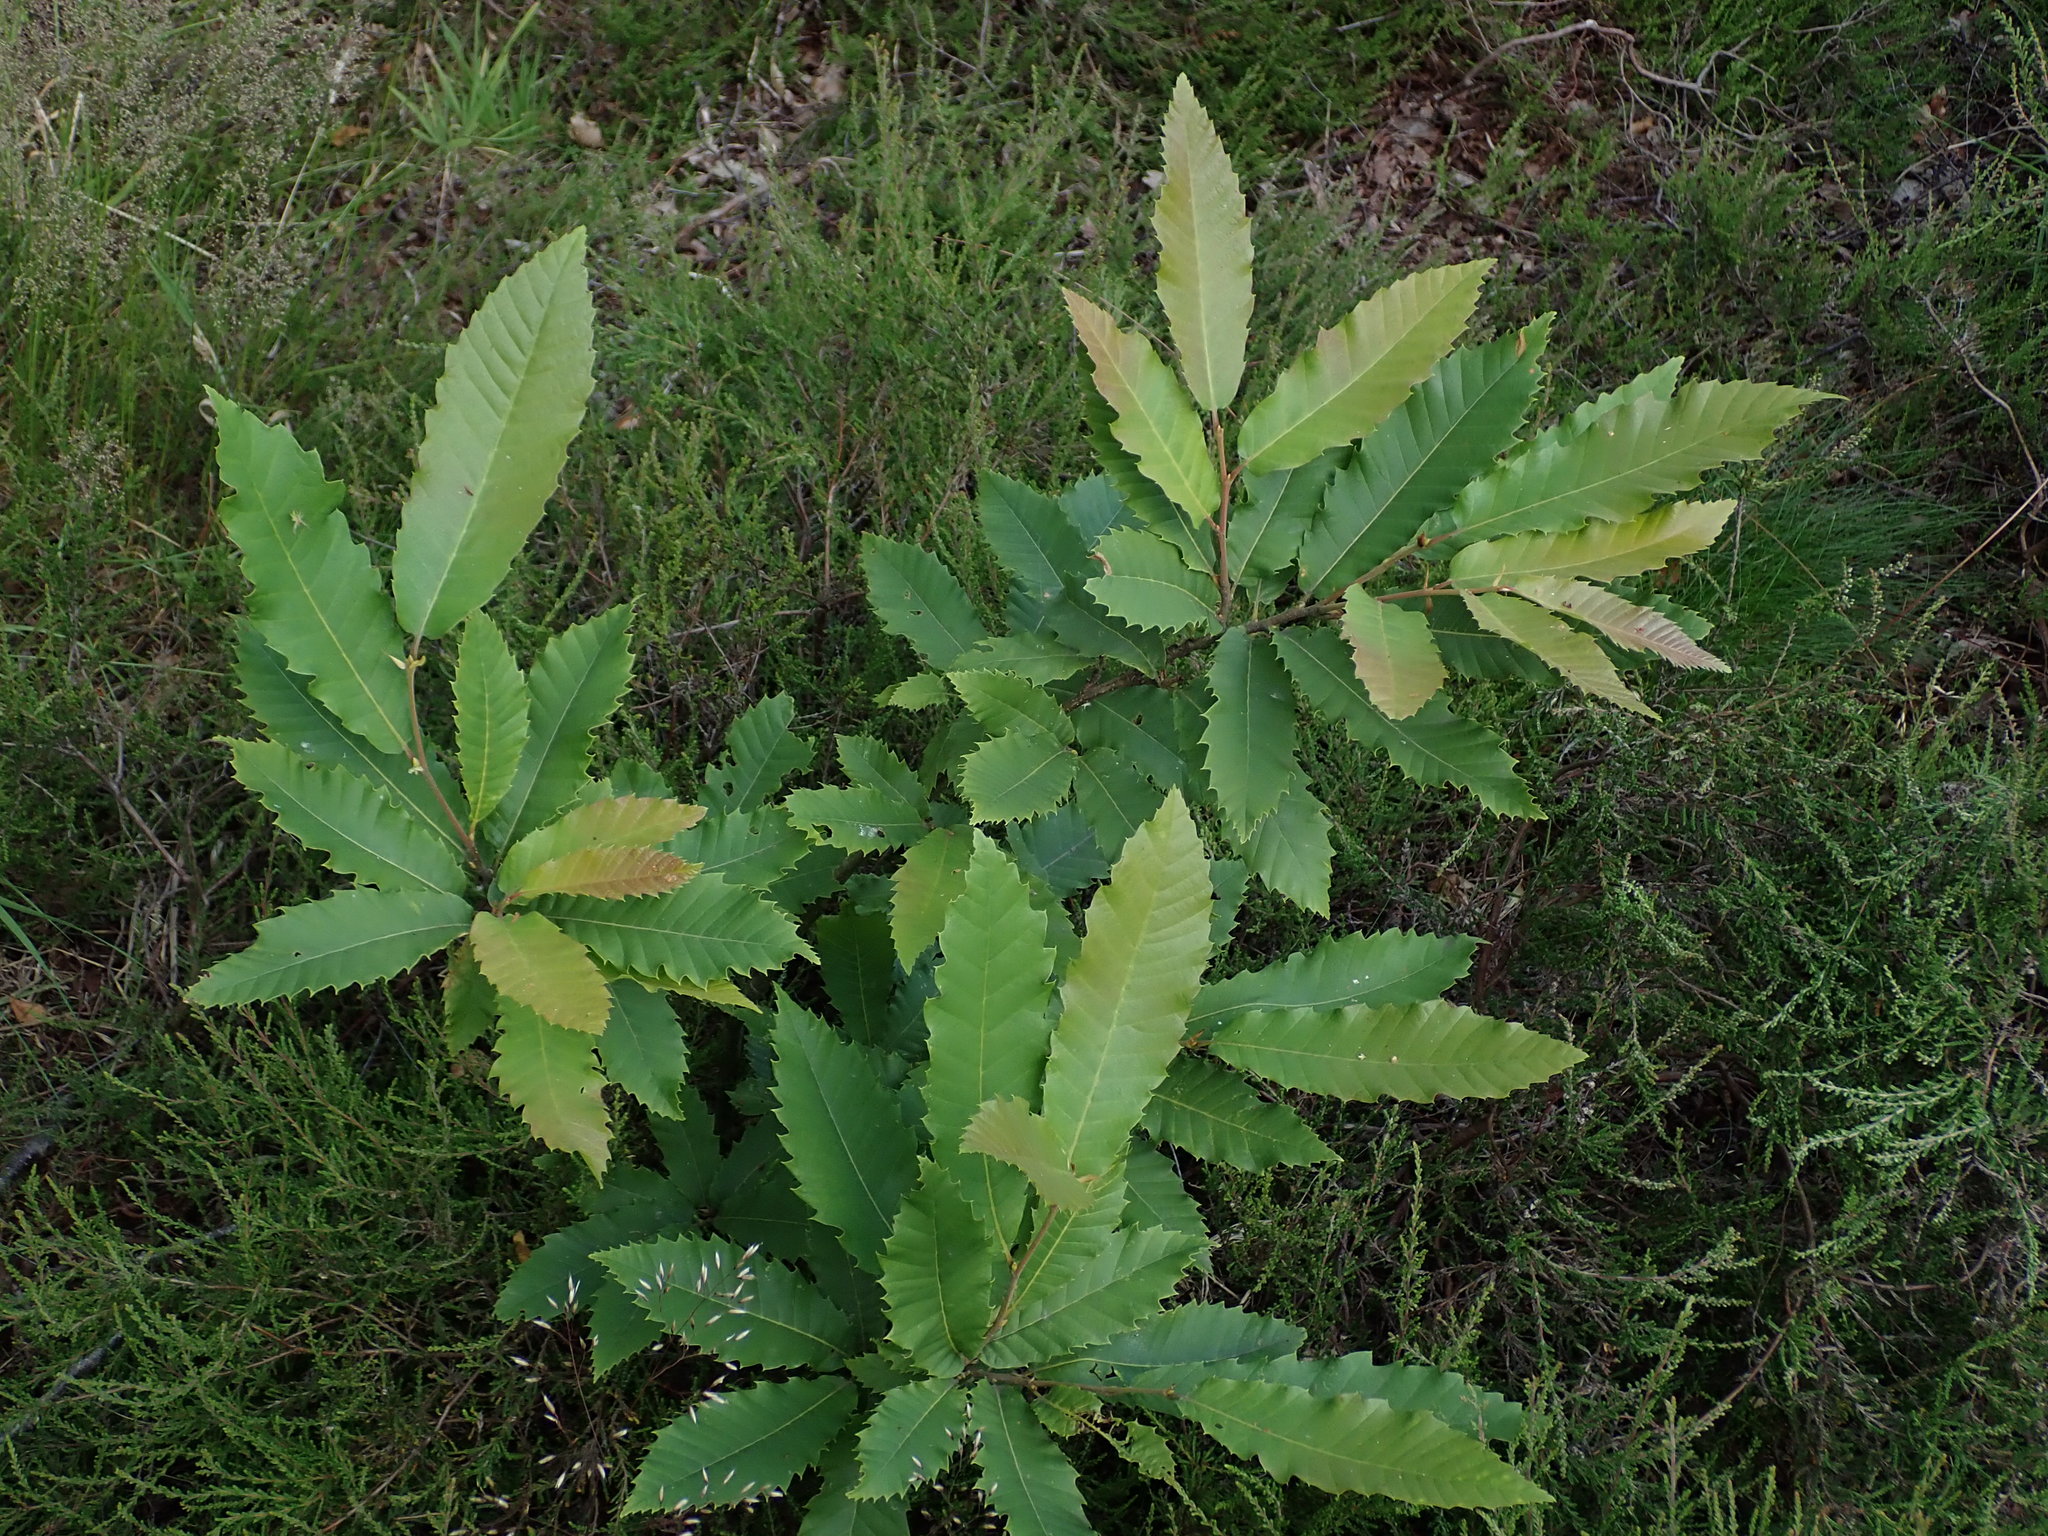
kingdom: Plantae
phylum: Tracheophyta
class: Magnoliopsida
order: Fagales
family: Fagaceae
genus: Castanea
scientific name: Castanea sativa
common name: Sweet chestnut
